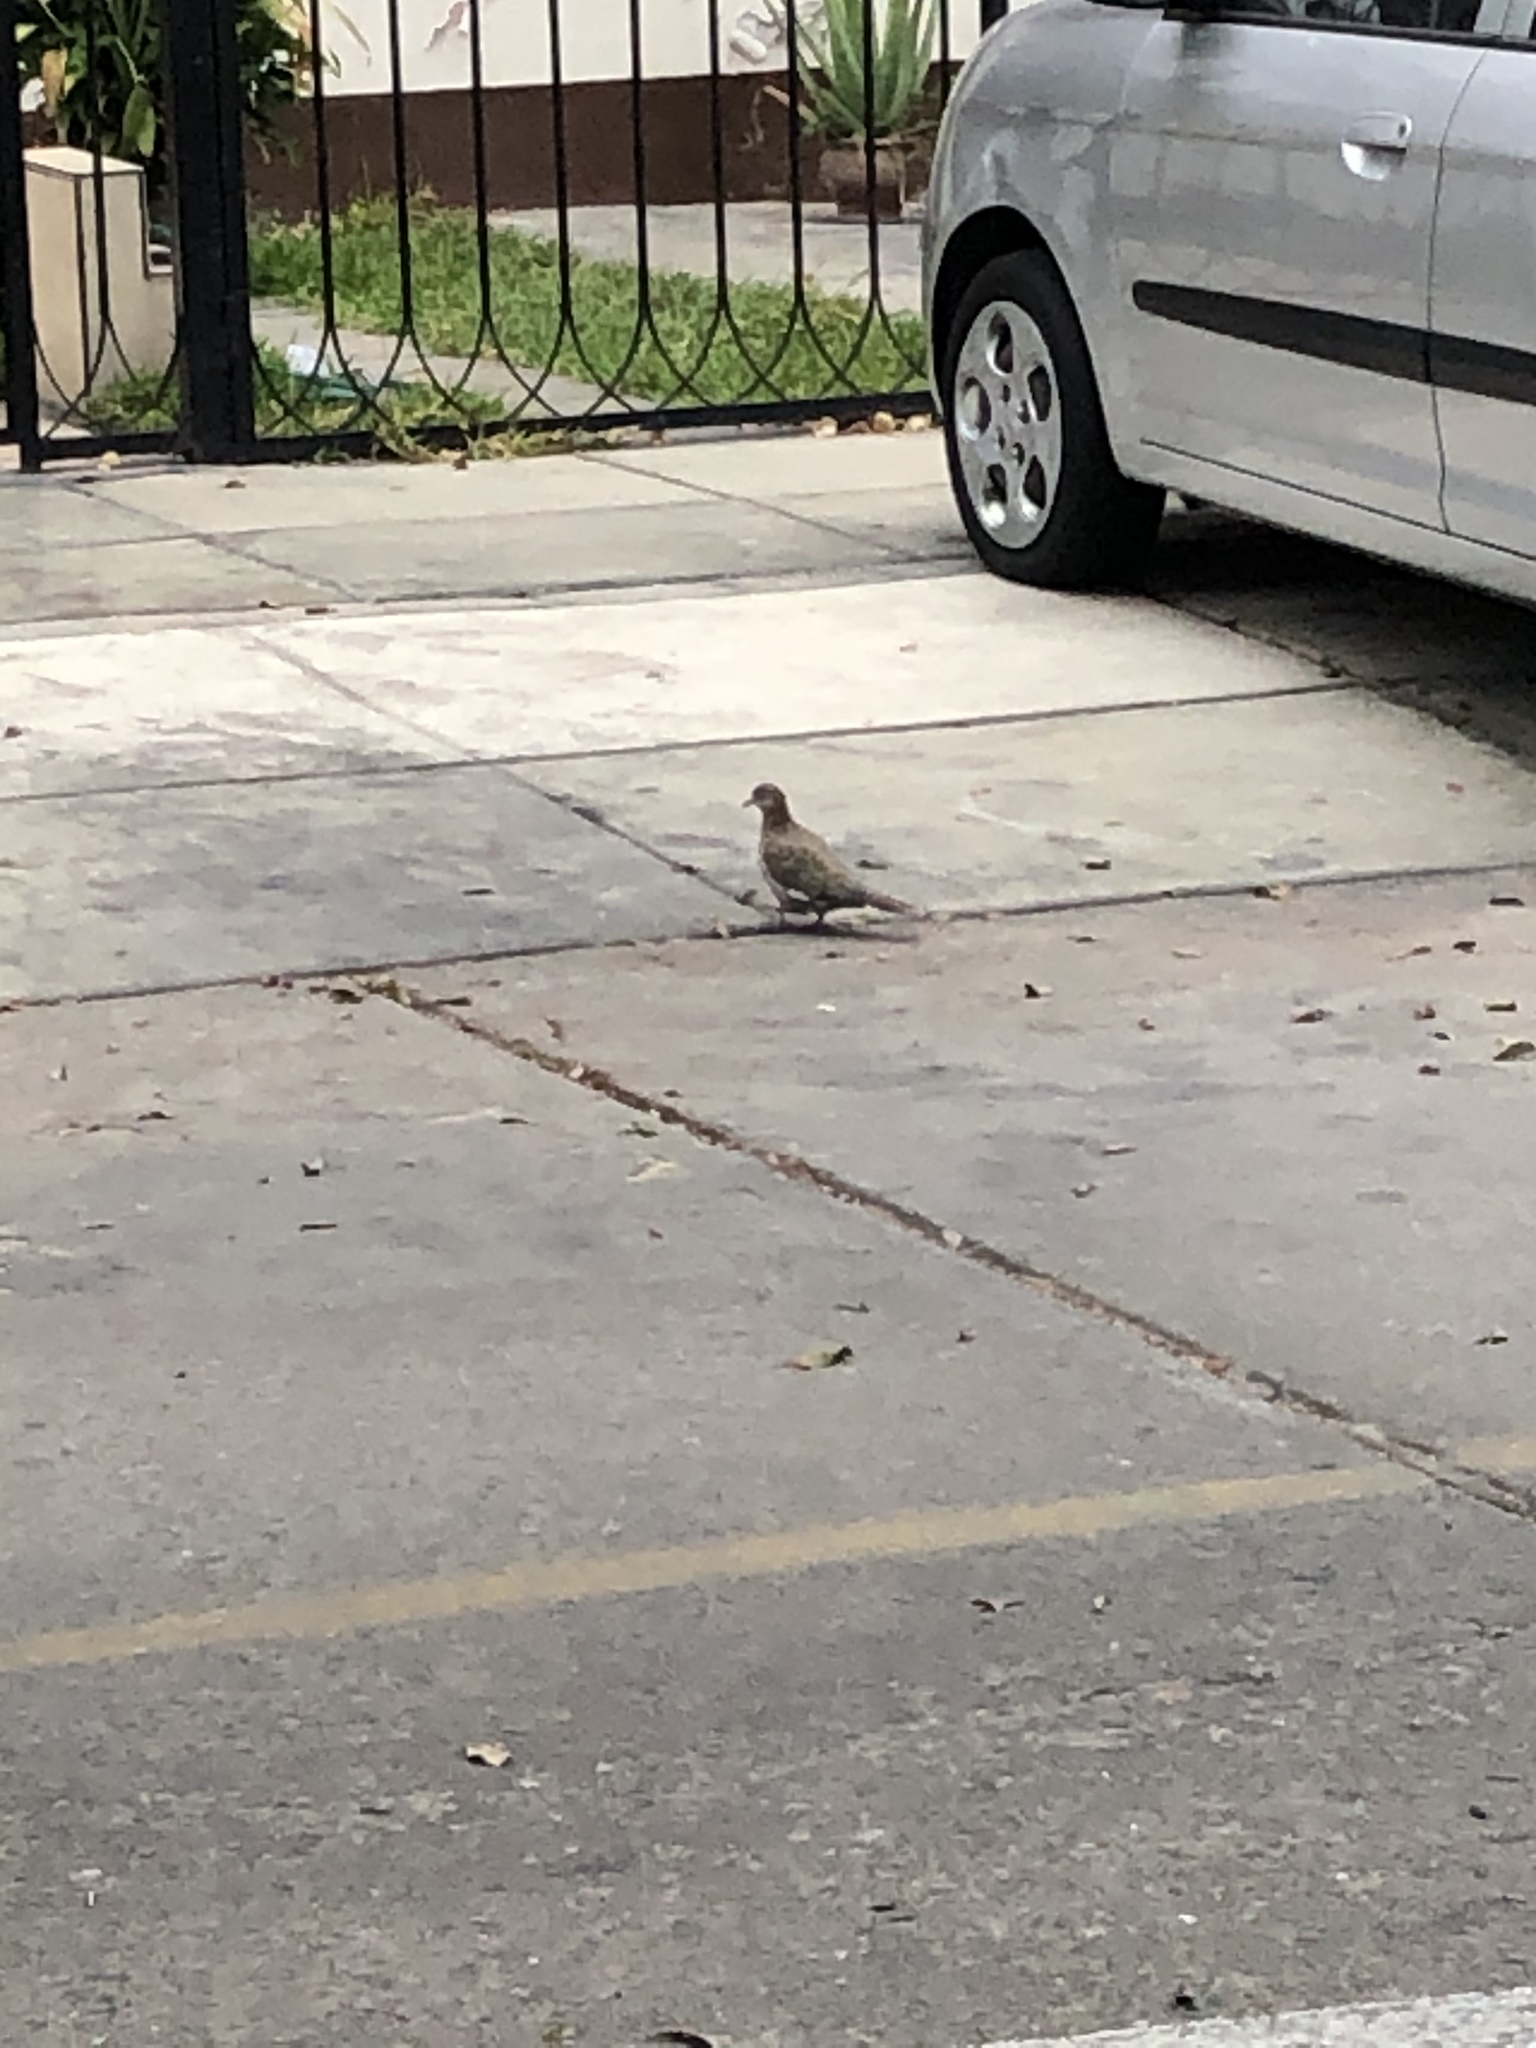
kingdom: Animalia
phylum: Chordata
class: Aves
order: Columbiformes
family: Columbidae
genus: Zenaida
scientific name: Zenaida meloda
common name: West peruvian dove
